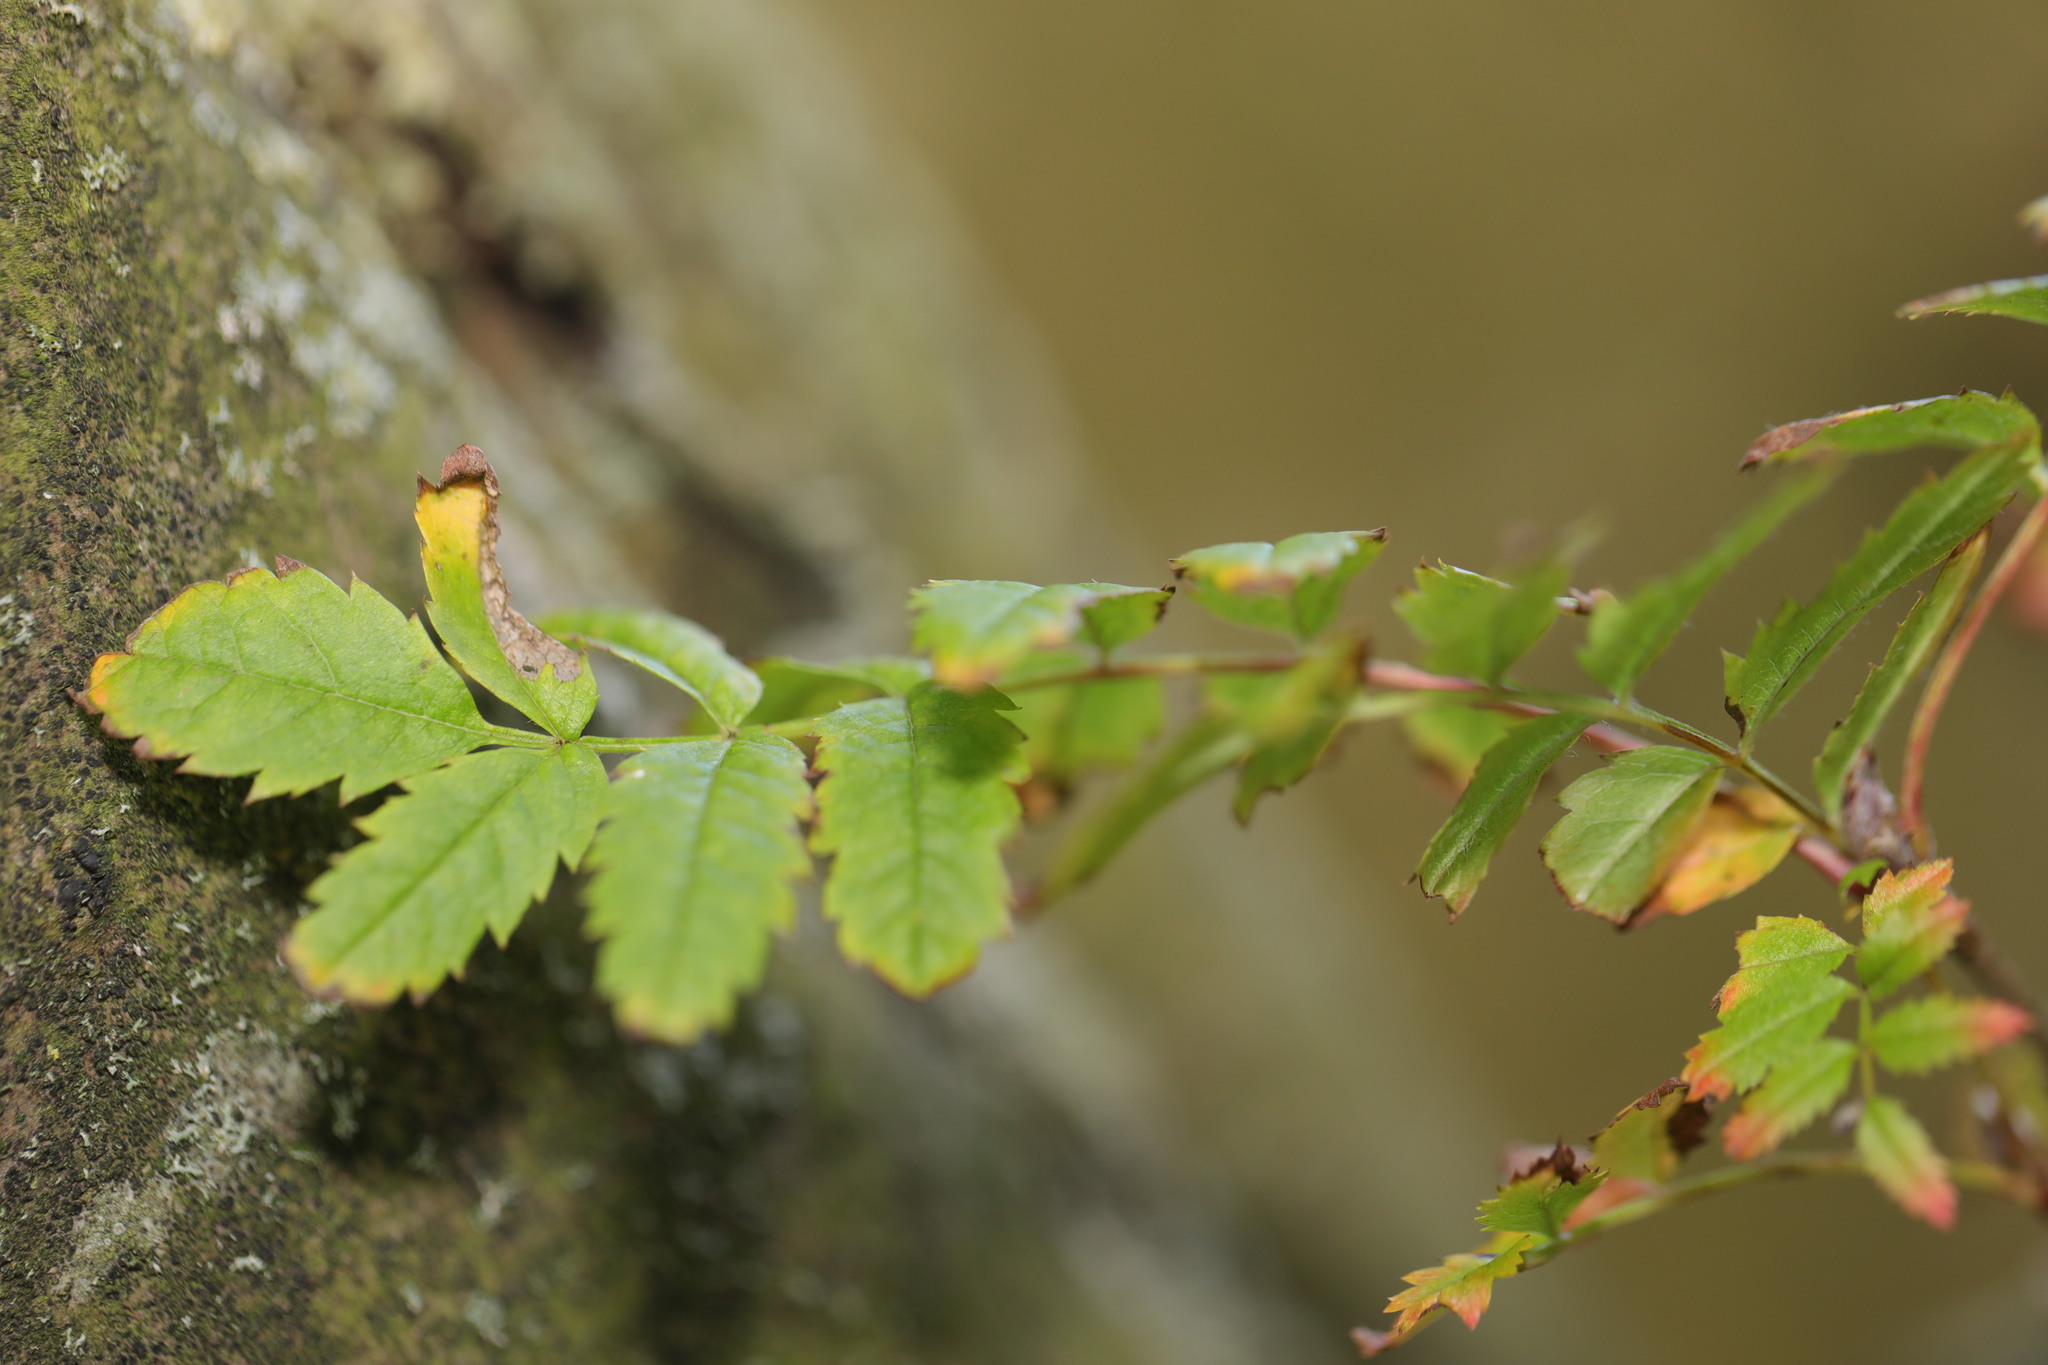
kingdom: Plantae
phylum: Tracheophyta
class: Magnoliopsida
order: Rosales
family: Rosaceae
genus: Sorbus
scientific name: Sorbus aucuparia
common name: Rowan
